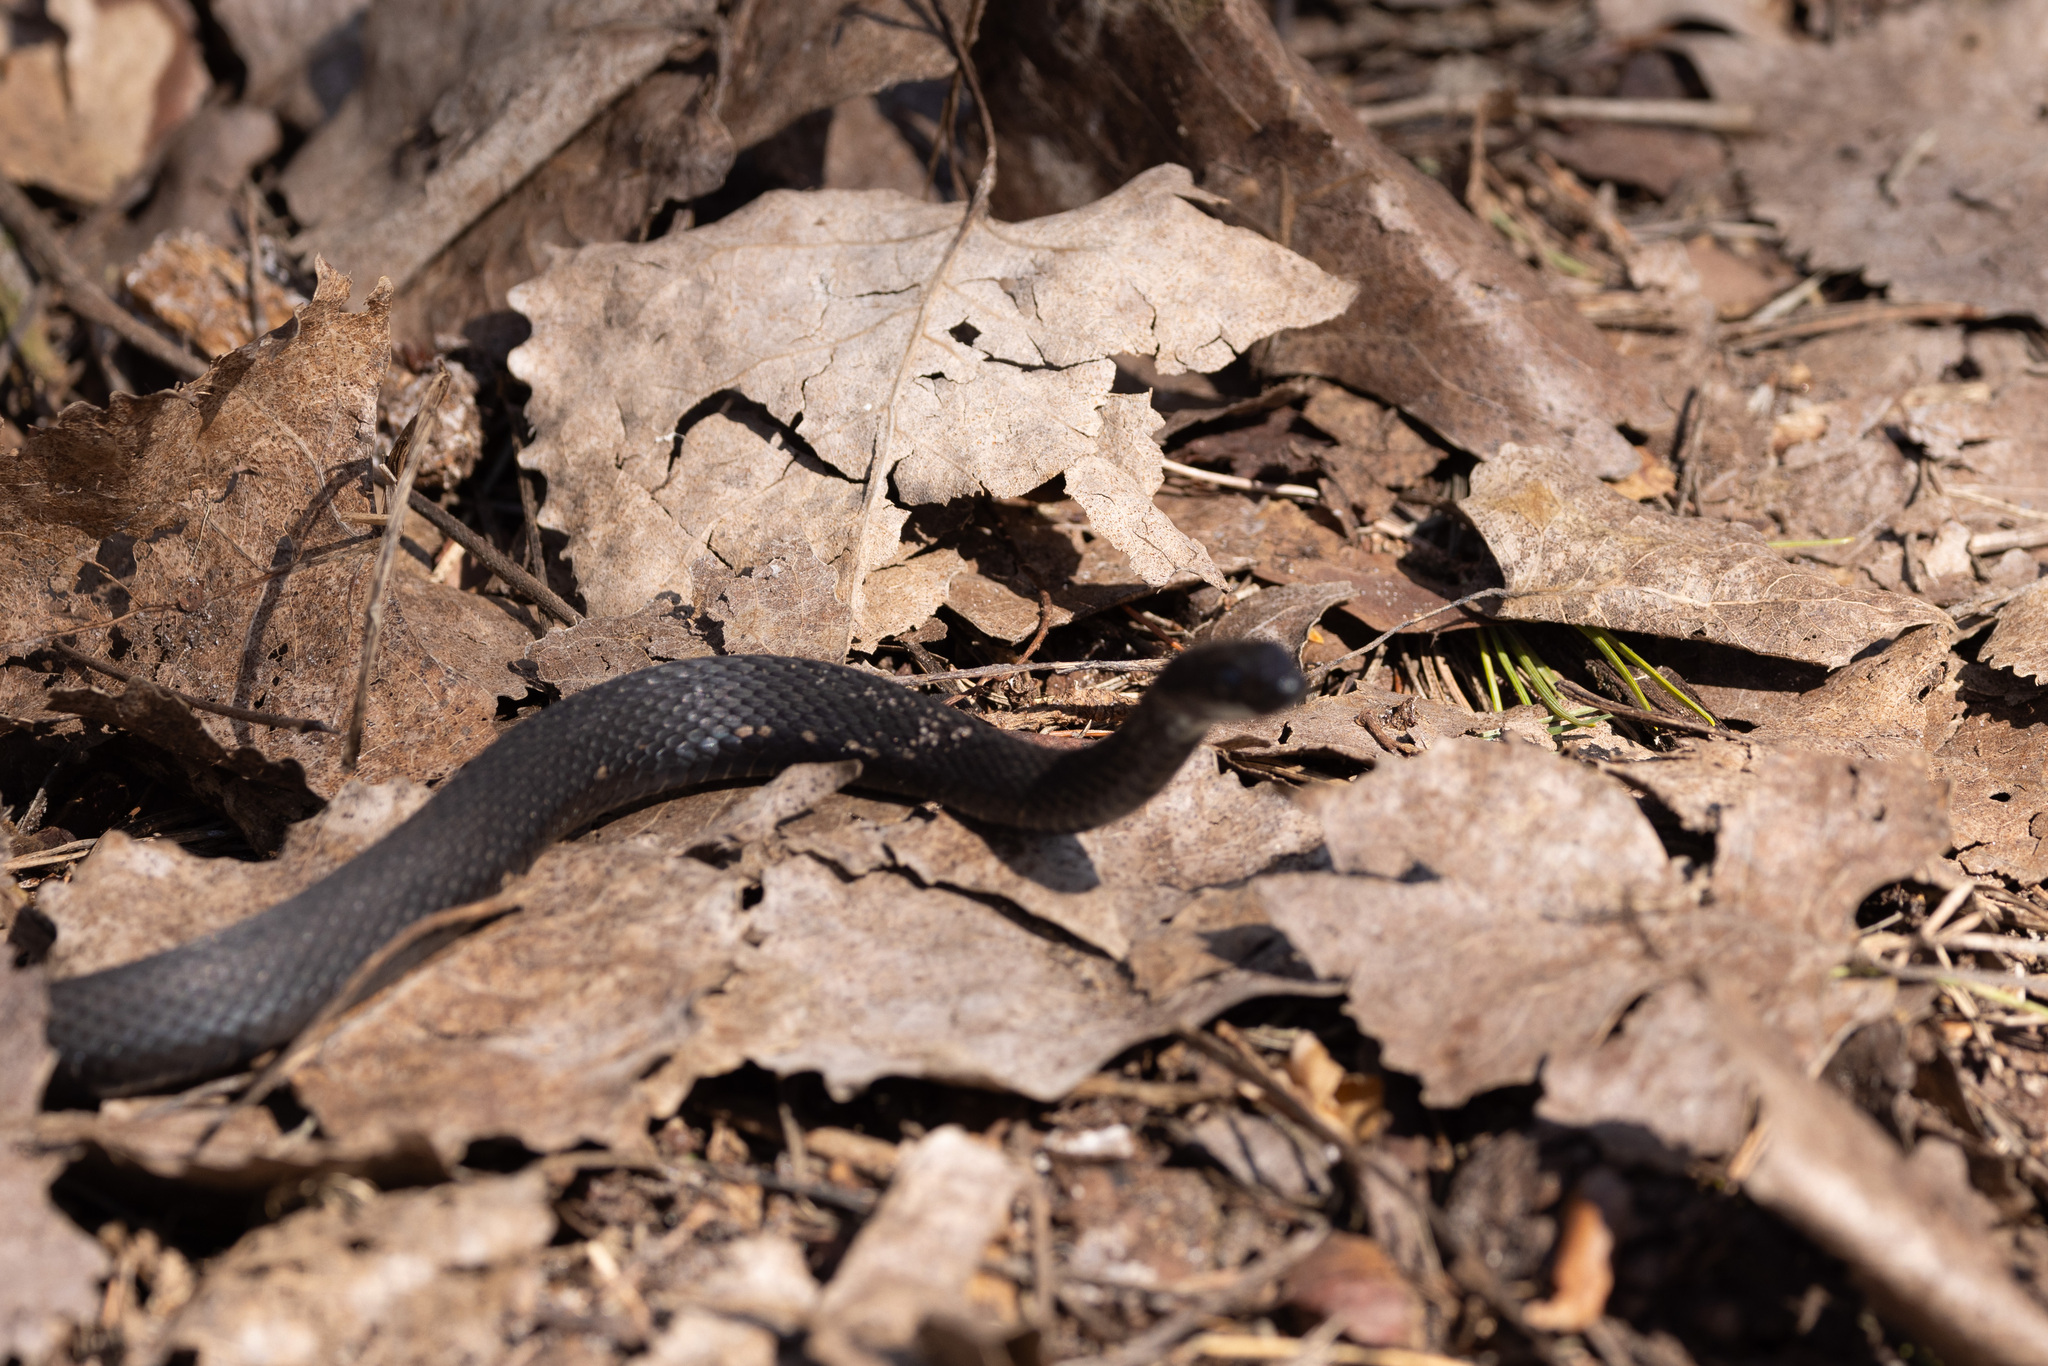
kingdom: Animalia
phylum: Chordata
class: Squamata
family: Colubridae
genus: Thamnophis
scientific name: Thamnophis sirtalis
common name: Common garter snake
